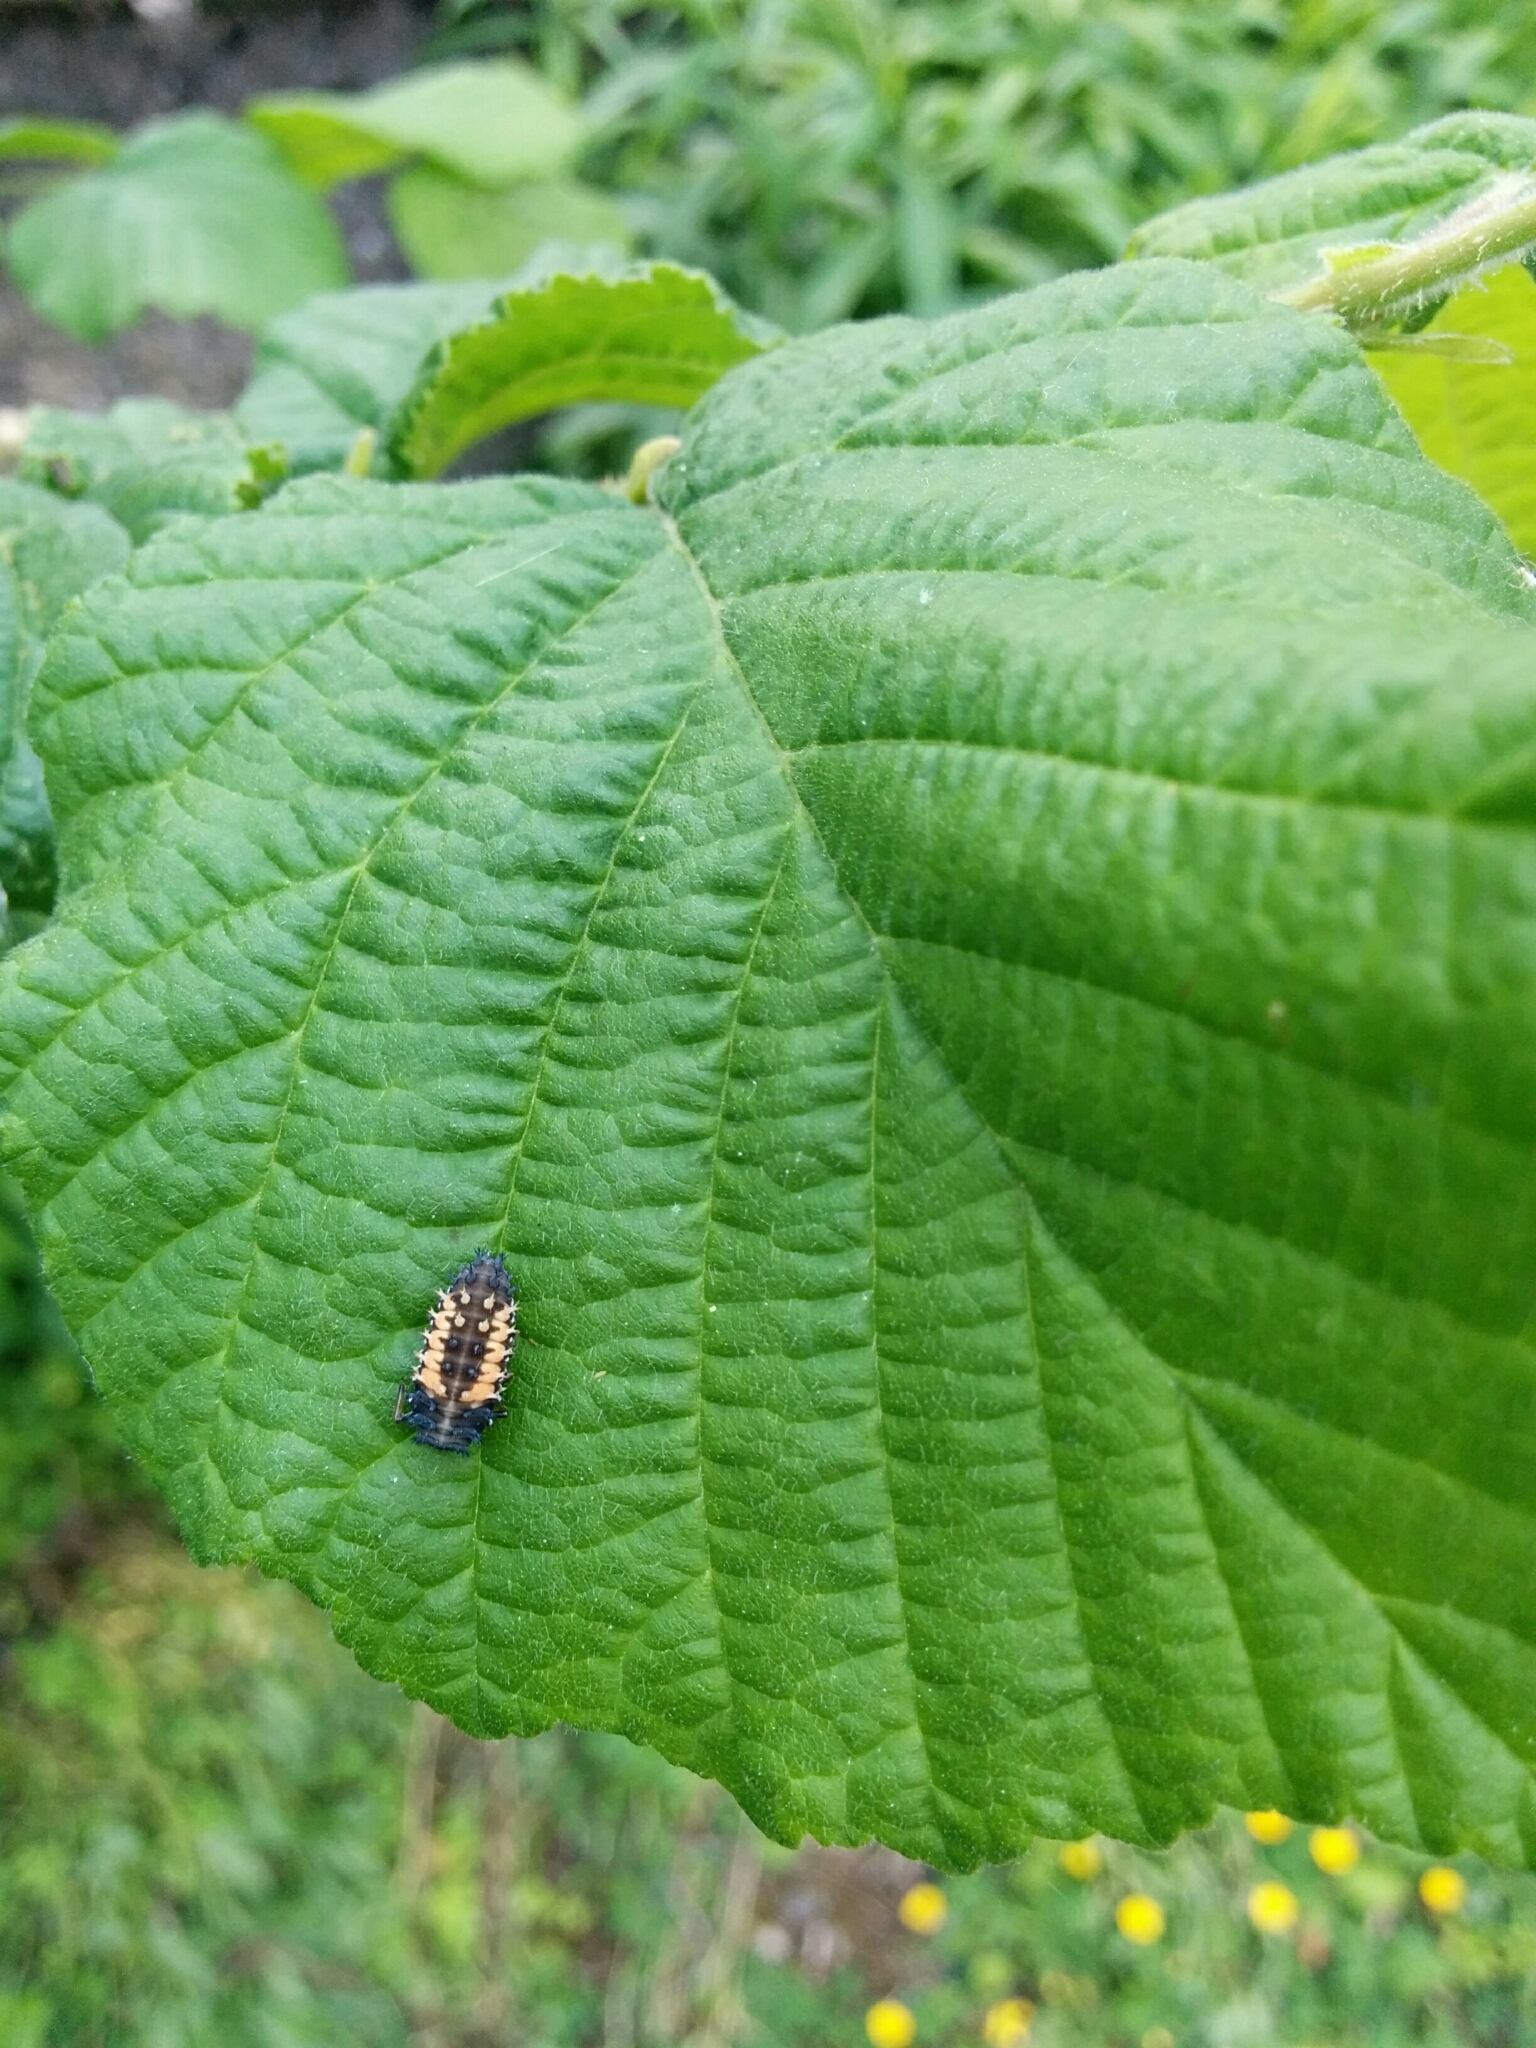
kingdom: Animalia
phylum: Arthropoda
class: Insecta
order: Coleoptera
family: Coccinellidae
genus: Harmonia
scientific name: Harmonia axyridis
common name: Harlequin ladybird
